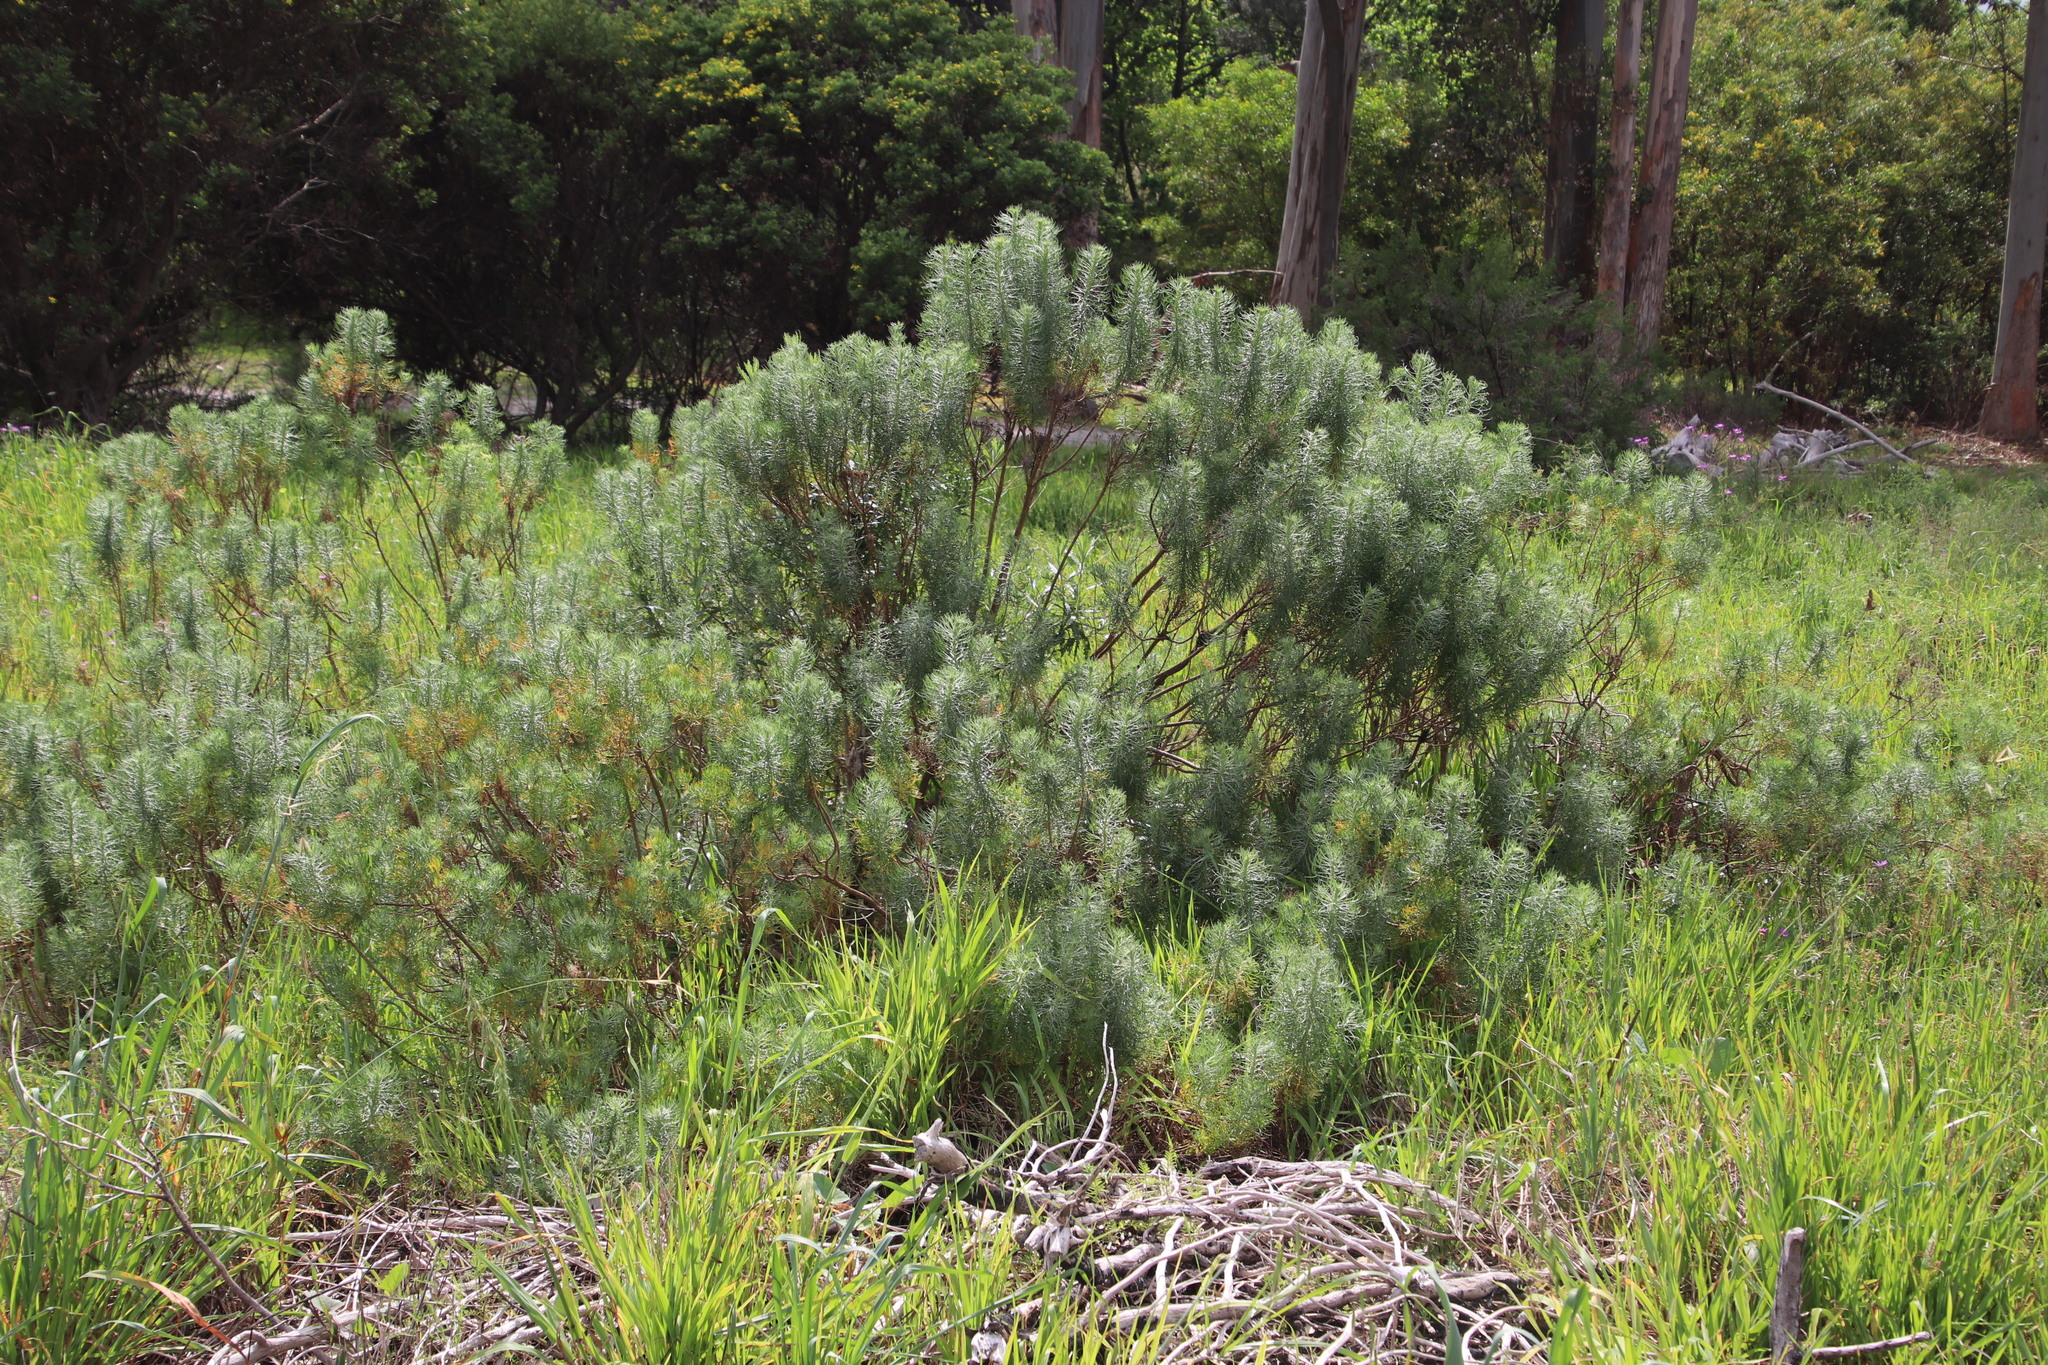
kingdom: Plantae
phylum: Tracheophyta
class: Magnoliopsida
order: Asterales
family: Asteraceae
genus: Athanasia
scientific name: Athanasia crithmifolia
